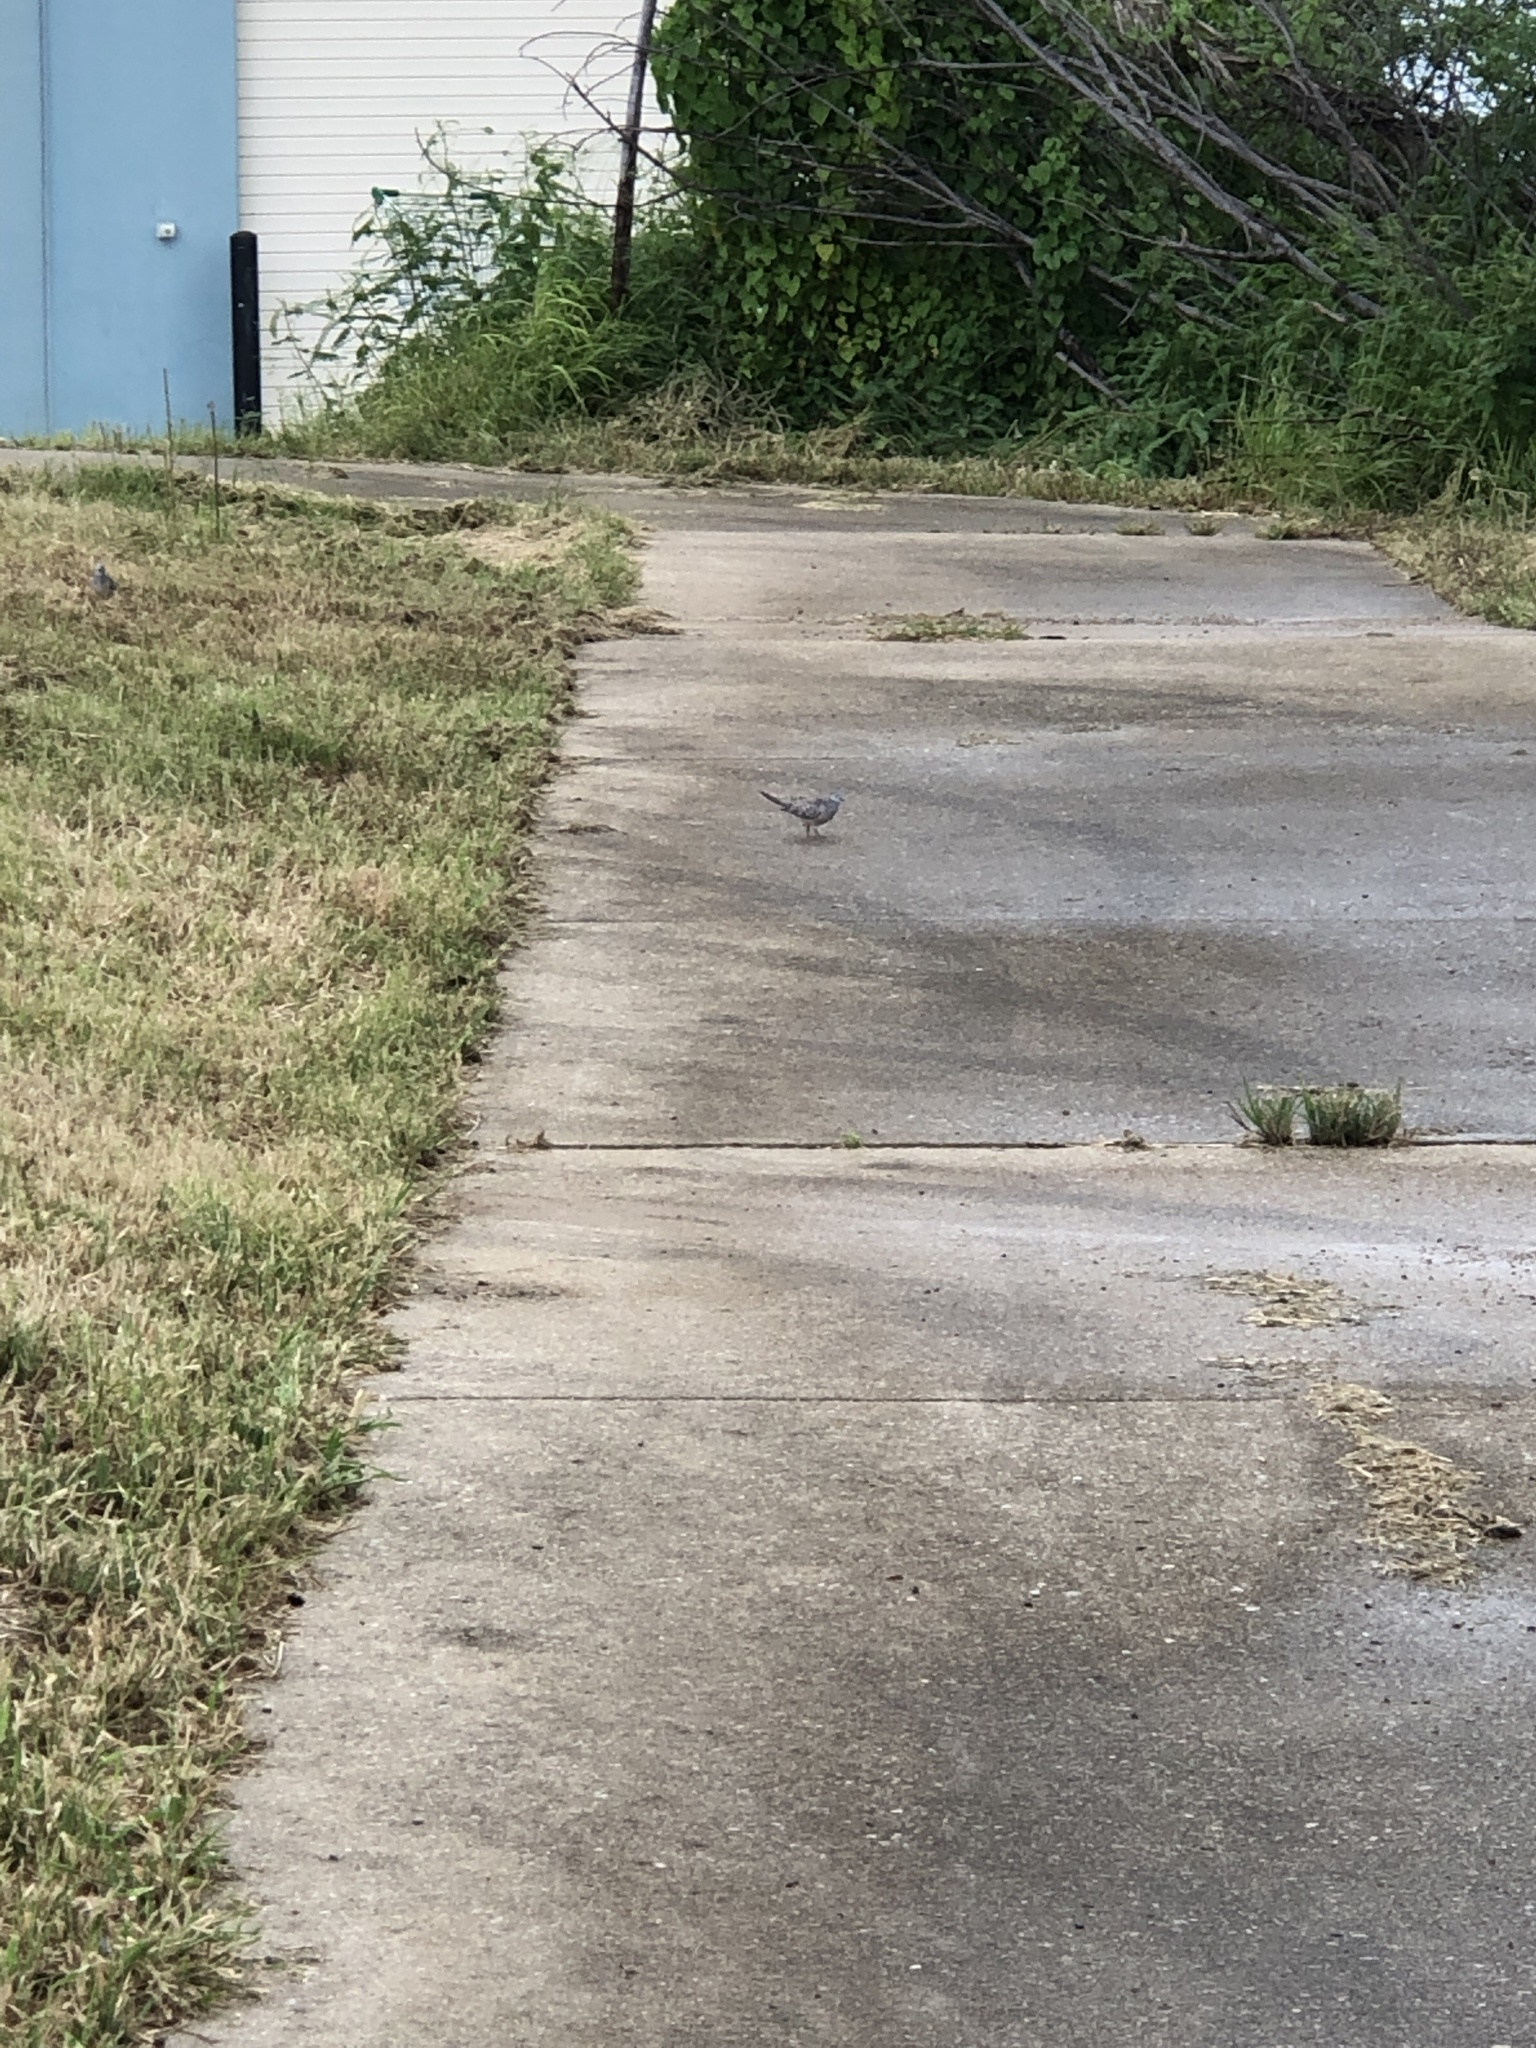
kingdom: Animalia
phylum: Chordata
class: Aves
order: Columbiformes
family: Columbidae
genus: Geopelia
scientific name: Geopelia placida
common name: Peaceful dove
